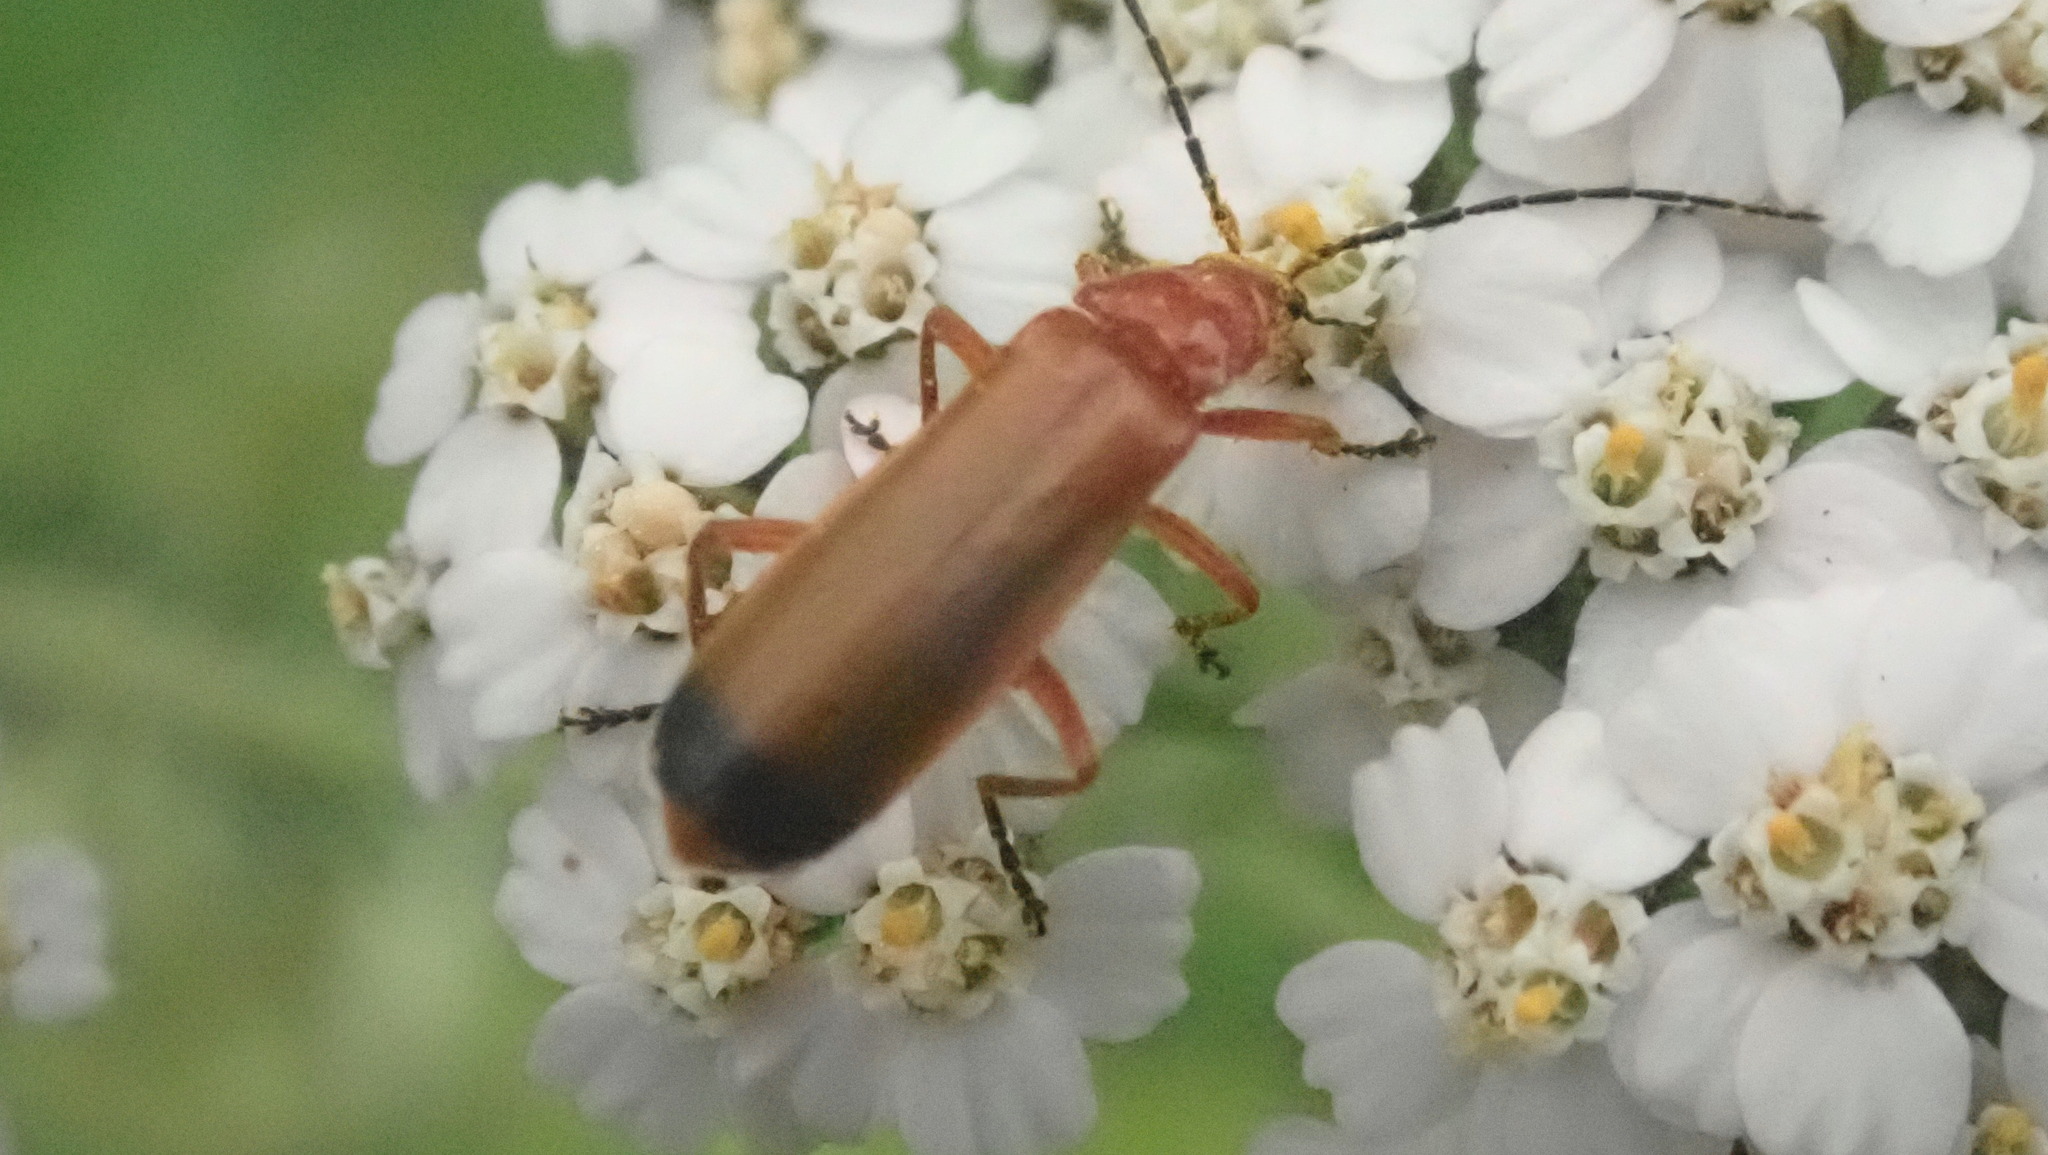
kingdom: Animalia
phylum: Arthropoda
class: Insecta
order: Coleoptera
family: Cantharidae
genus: Rhagonycha
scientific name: Rhagonycha fulva
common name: Common red soldier beetle
